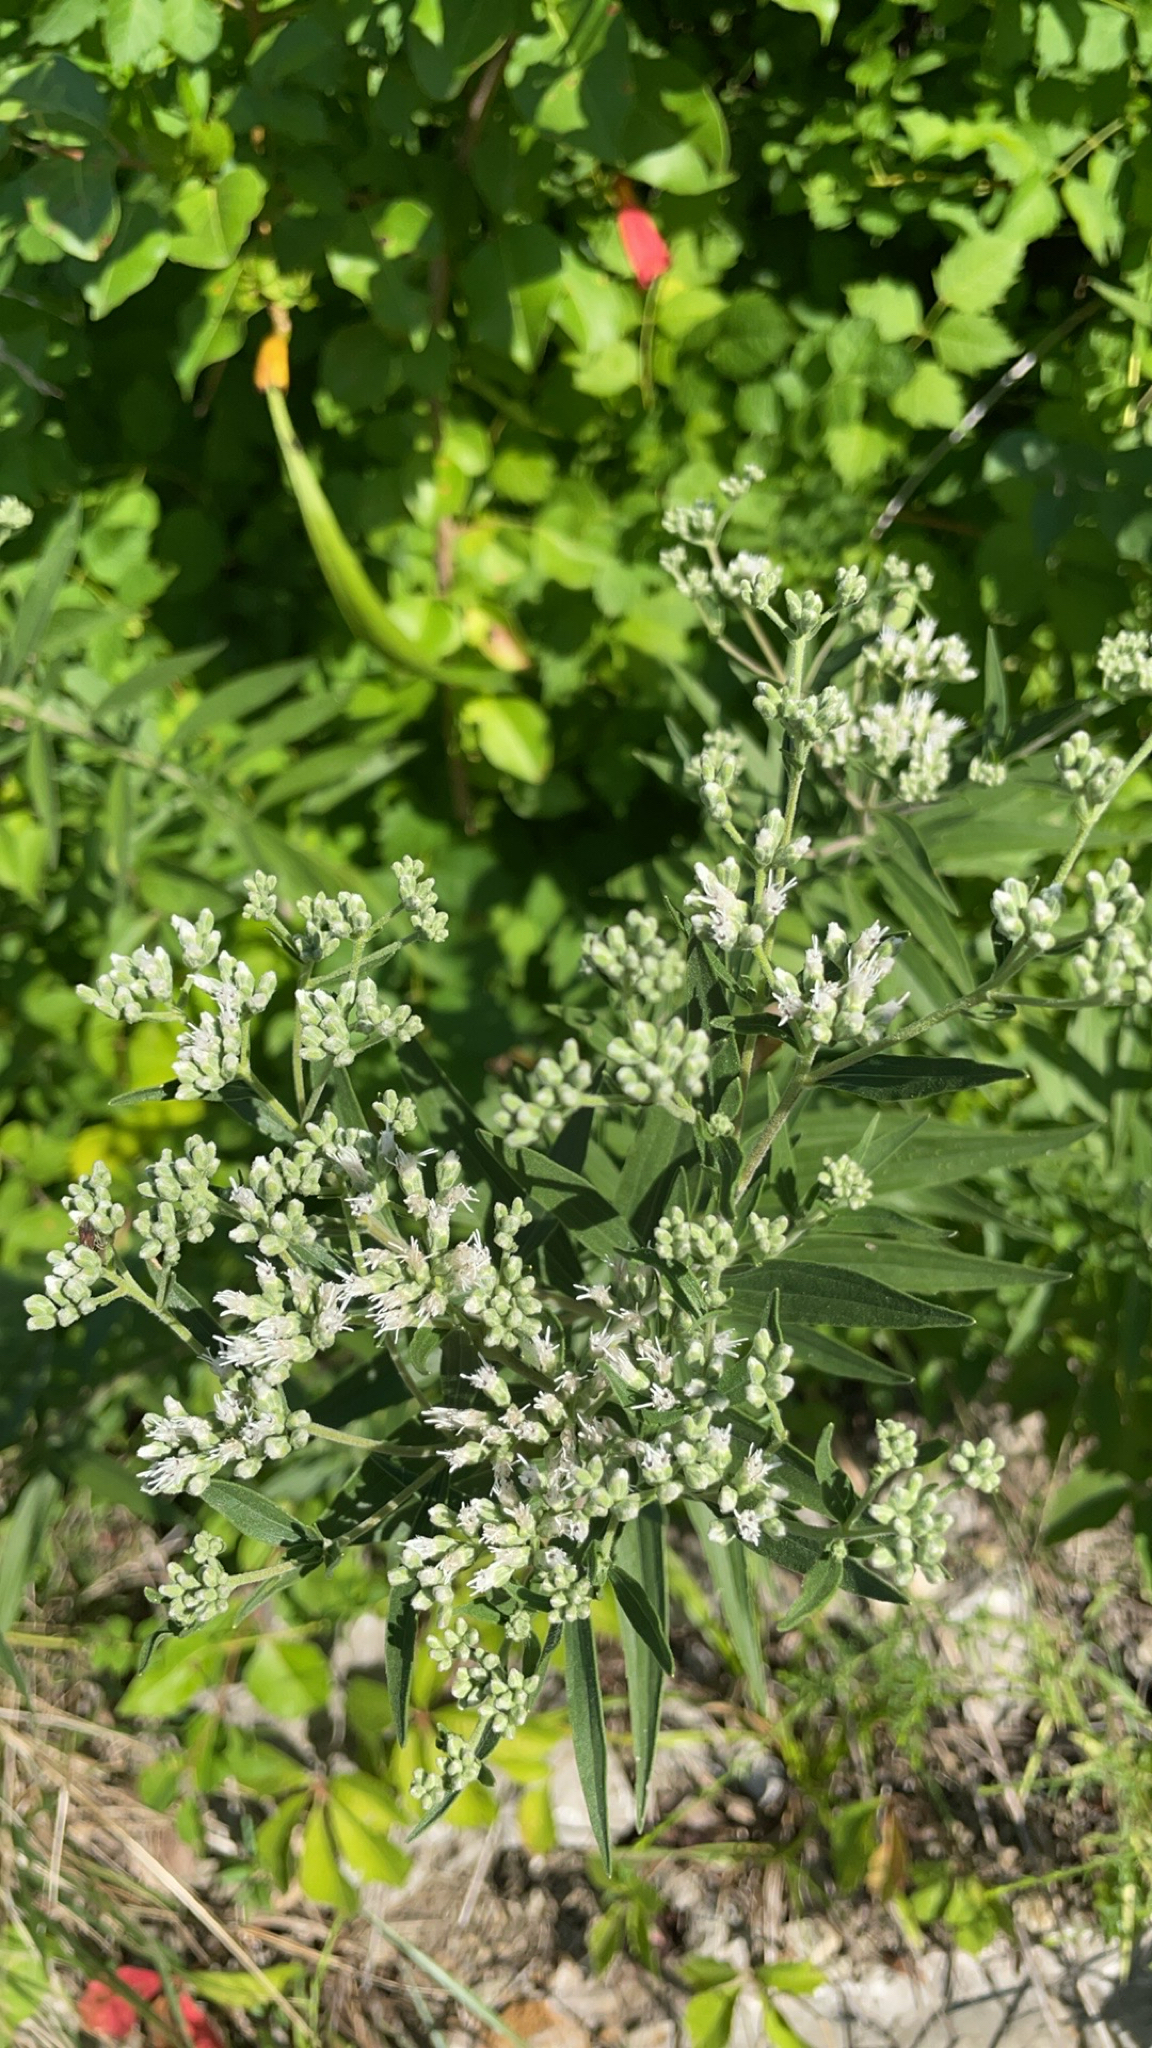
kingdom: Plantae
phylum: Tracheophyta
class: Magnoliopsida
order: Asterales
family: Asteraceae
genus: Eupatorium
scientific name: Eupatorium altissimum
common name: Tall thoroughwort
